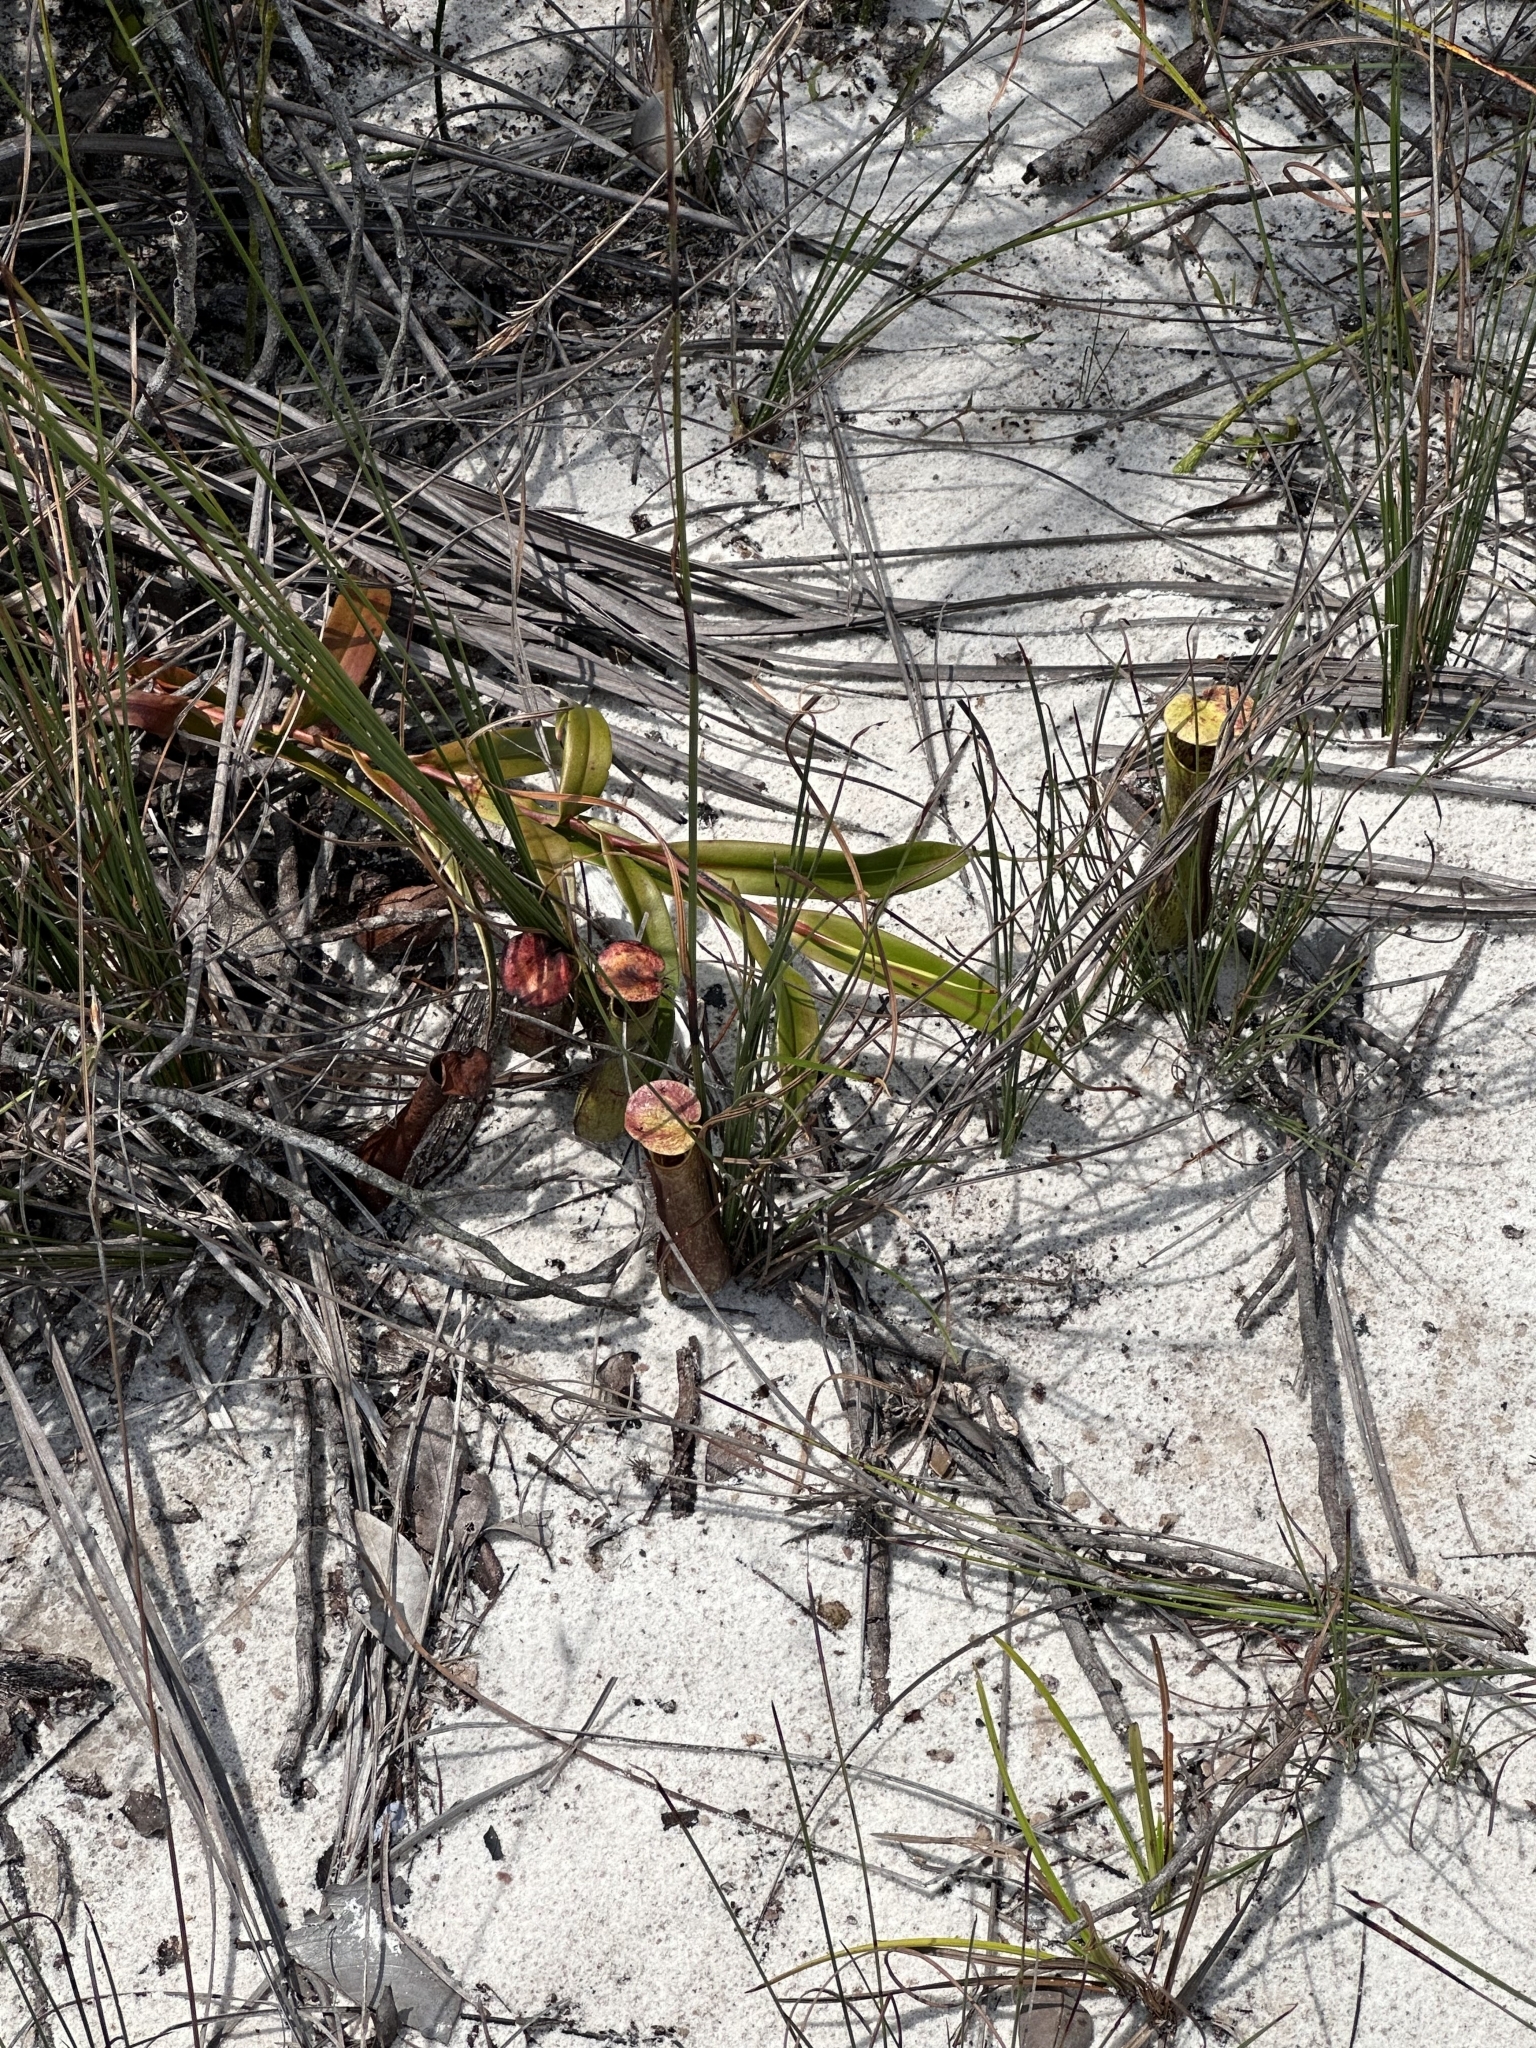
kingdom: Plantae
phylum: Tracheophyta
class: Magnoliopsida
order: Caryophyllales
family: Nepenthaceae
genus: Nepenthes
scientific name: Nepenthes gracilis
